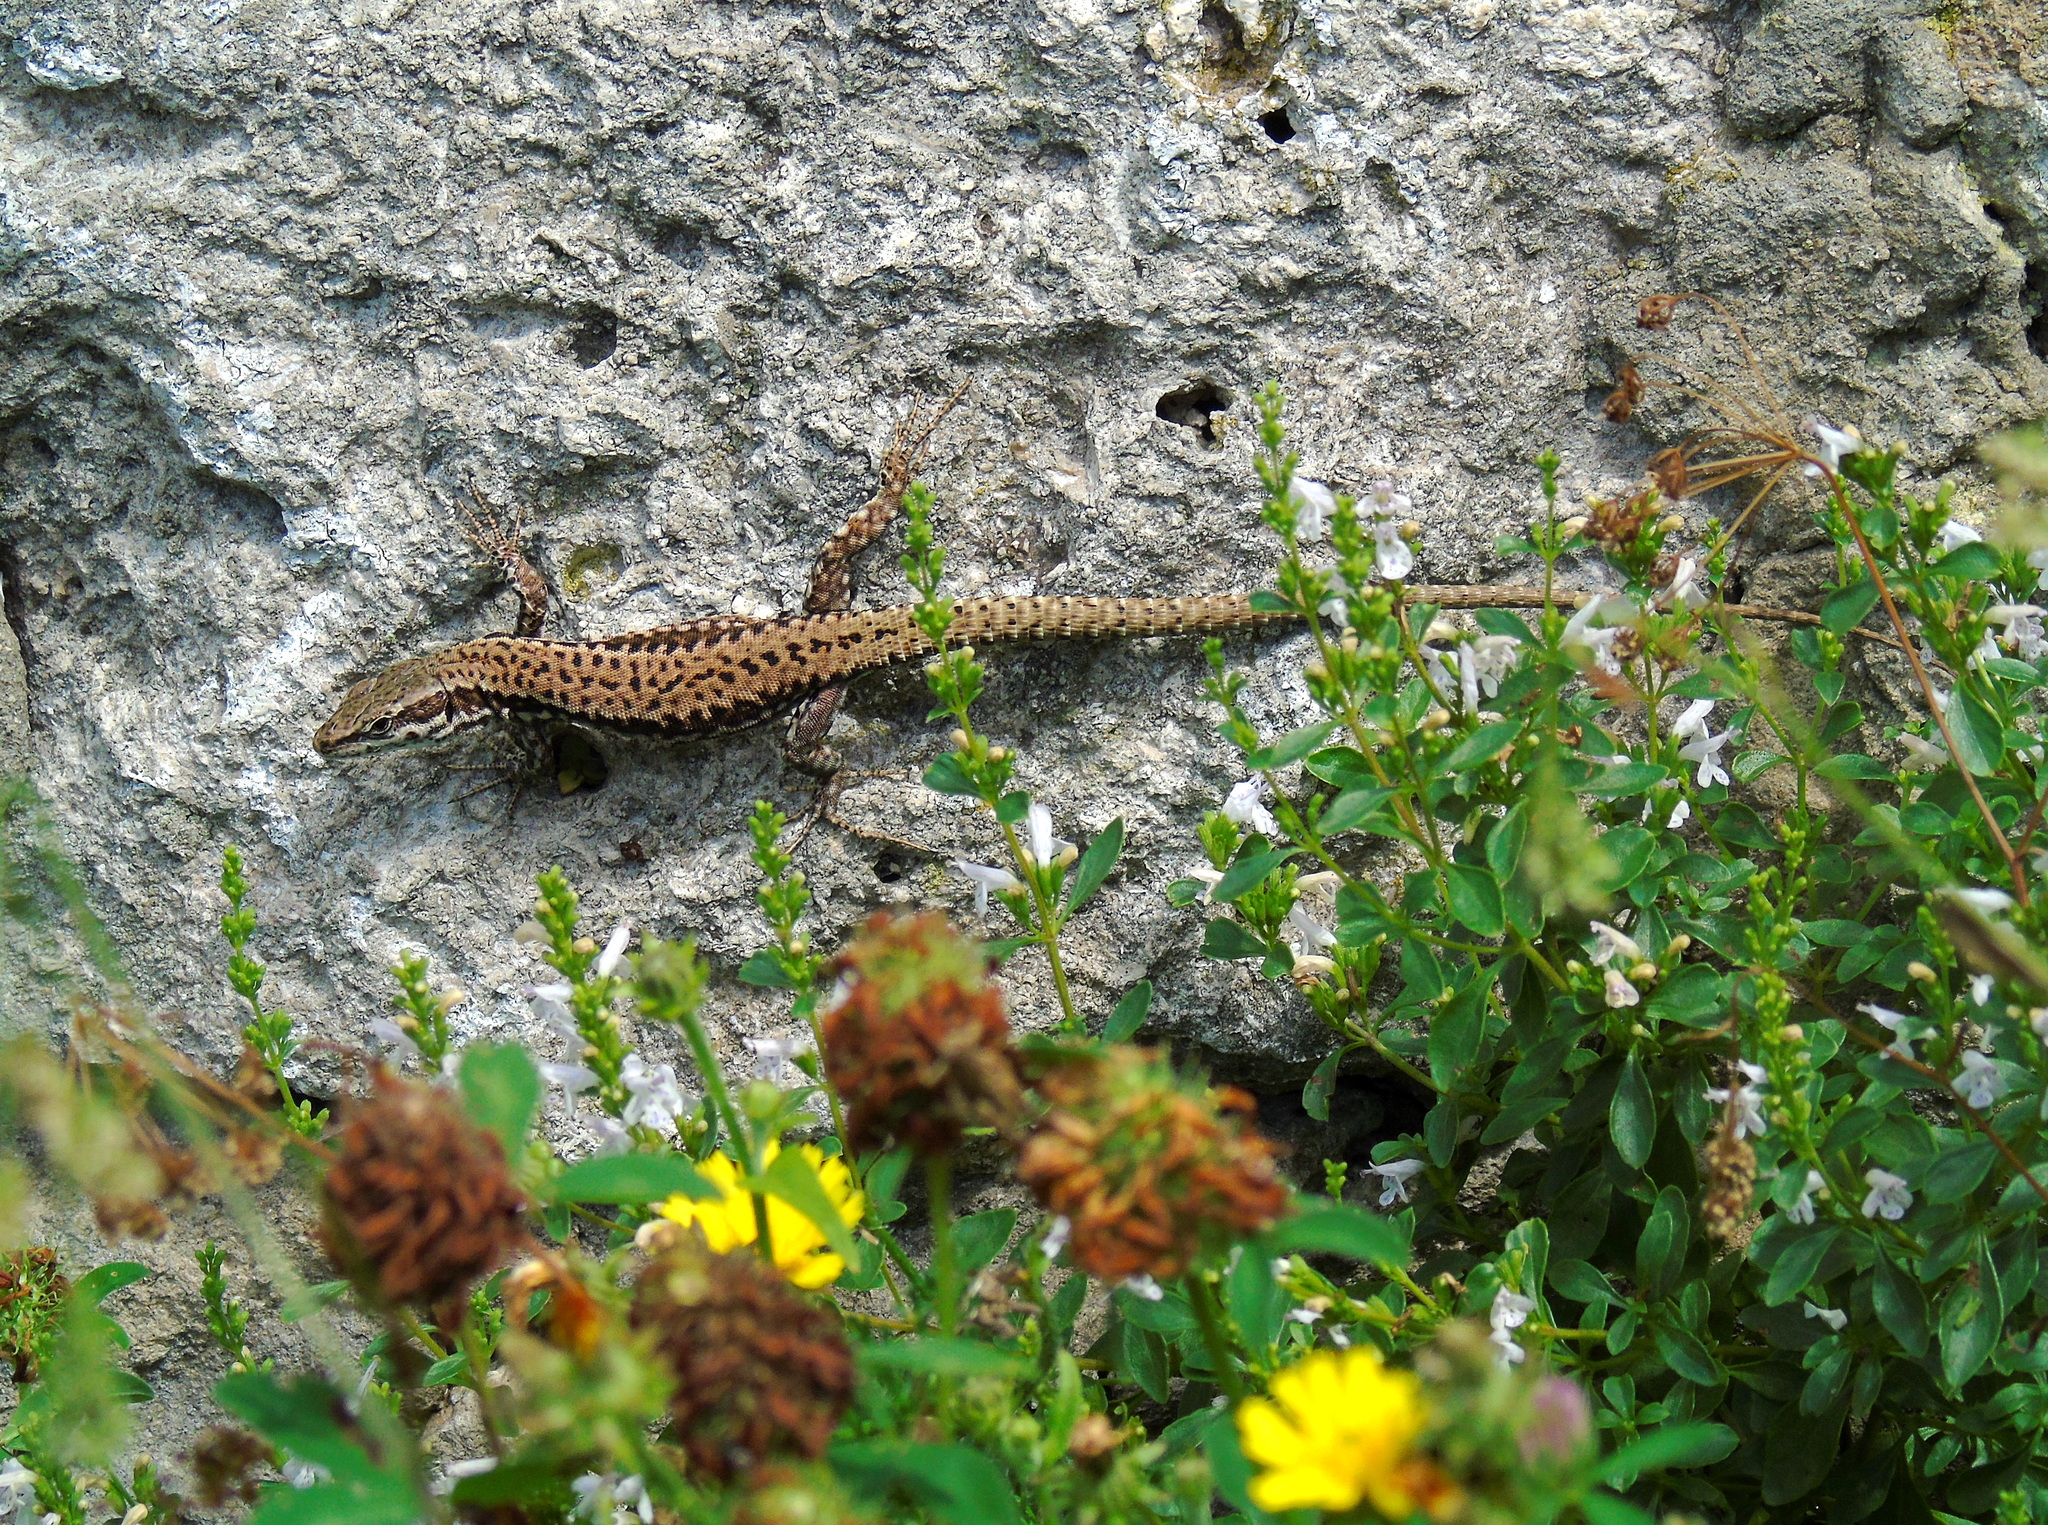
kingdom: Animalia
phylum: Chordata
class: Squamata
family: Lacertidae
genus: Podarcis
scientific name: Podarcis muralis
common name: Common wall lizard
